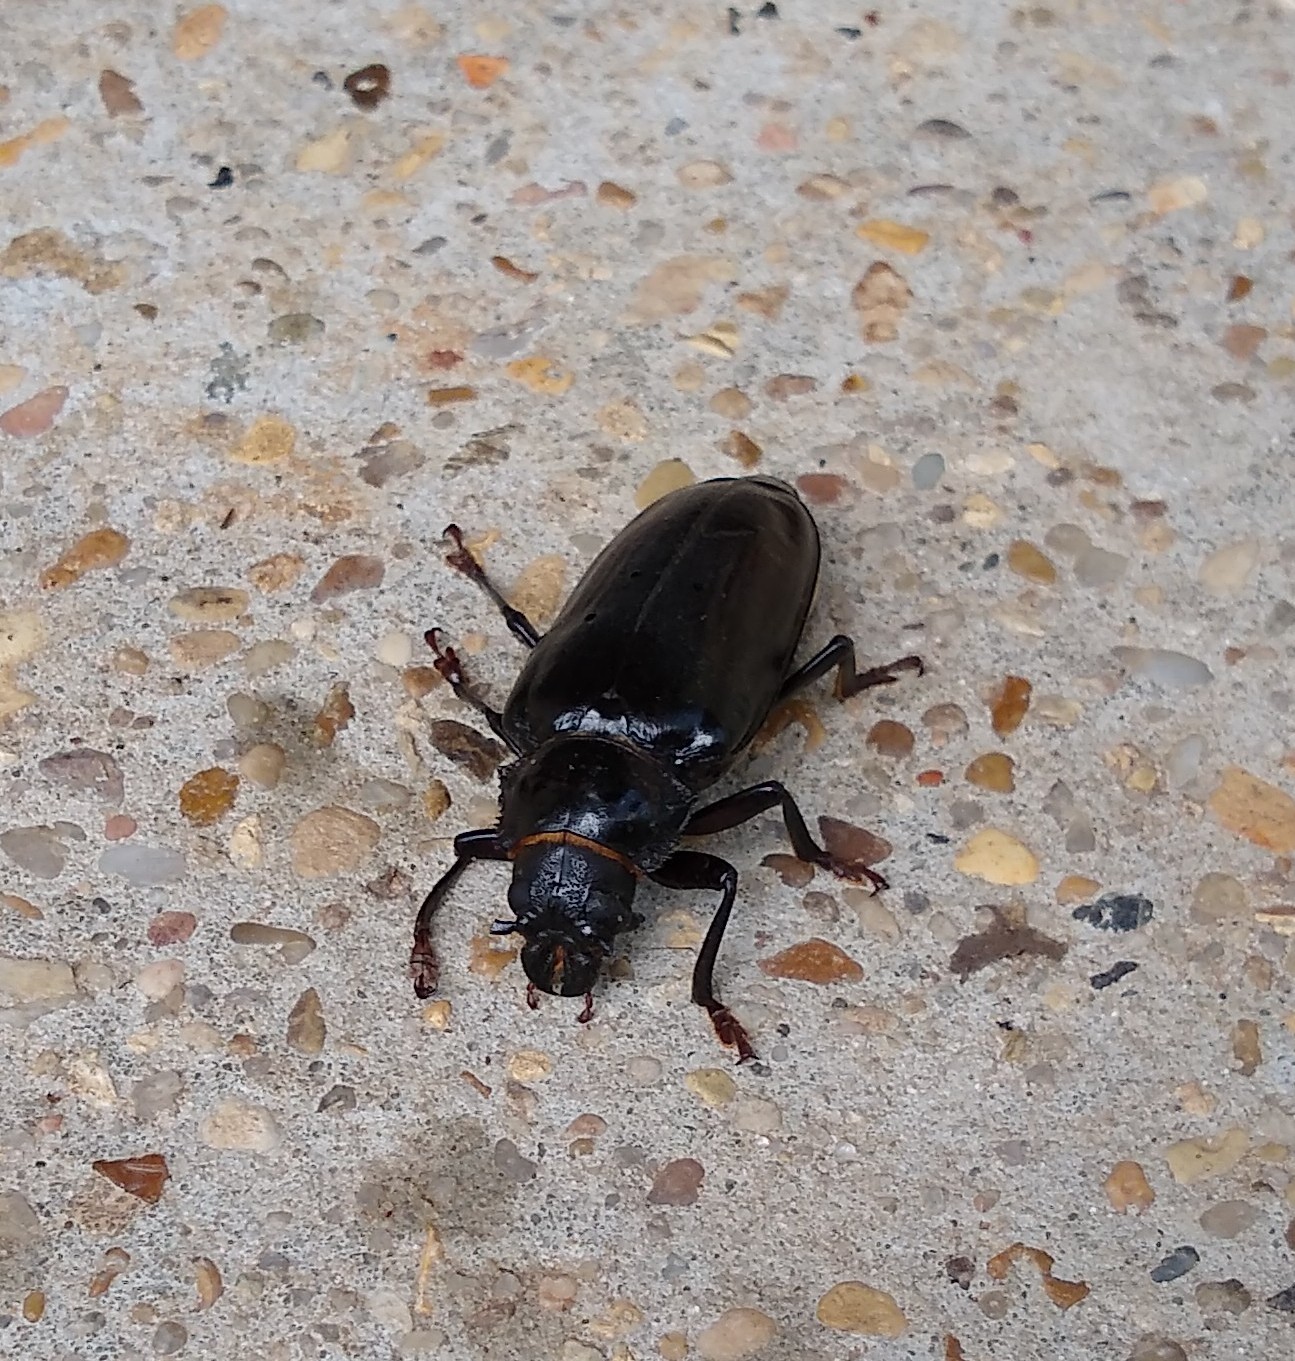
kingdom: Animalia
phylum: Arthropoda
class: Insecta
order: Coleoptera
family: Cerambycidae
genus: Archodontes
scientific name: Archodontes melanopus
